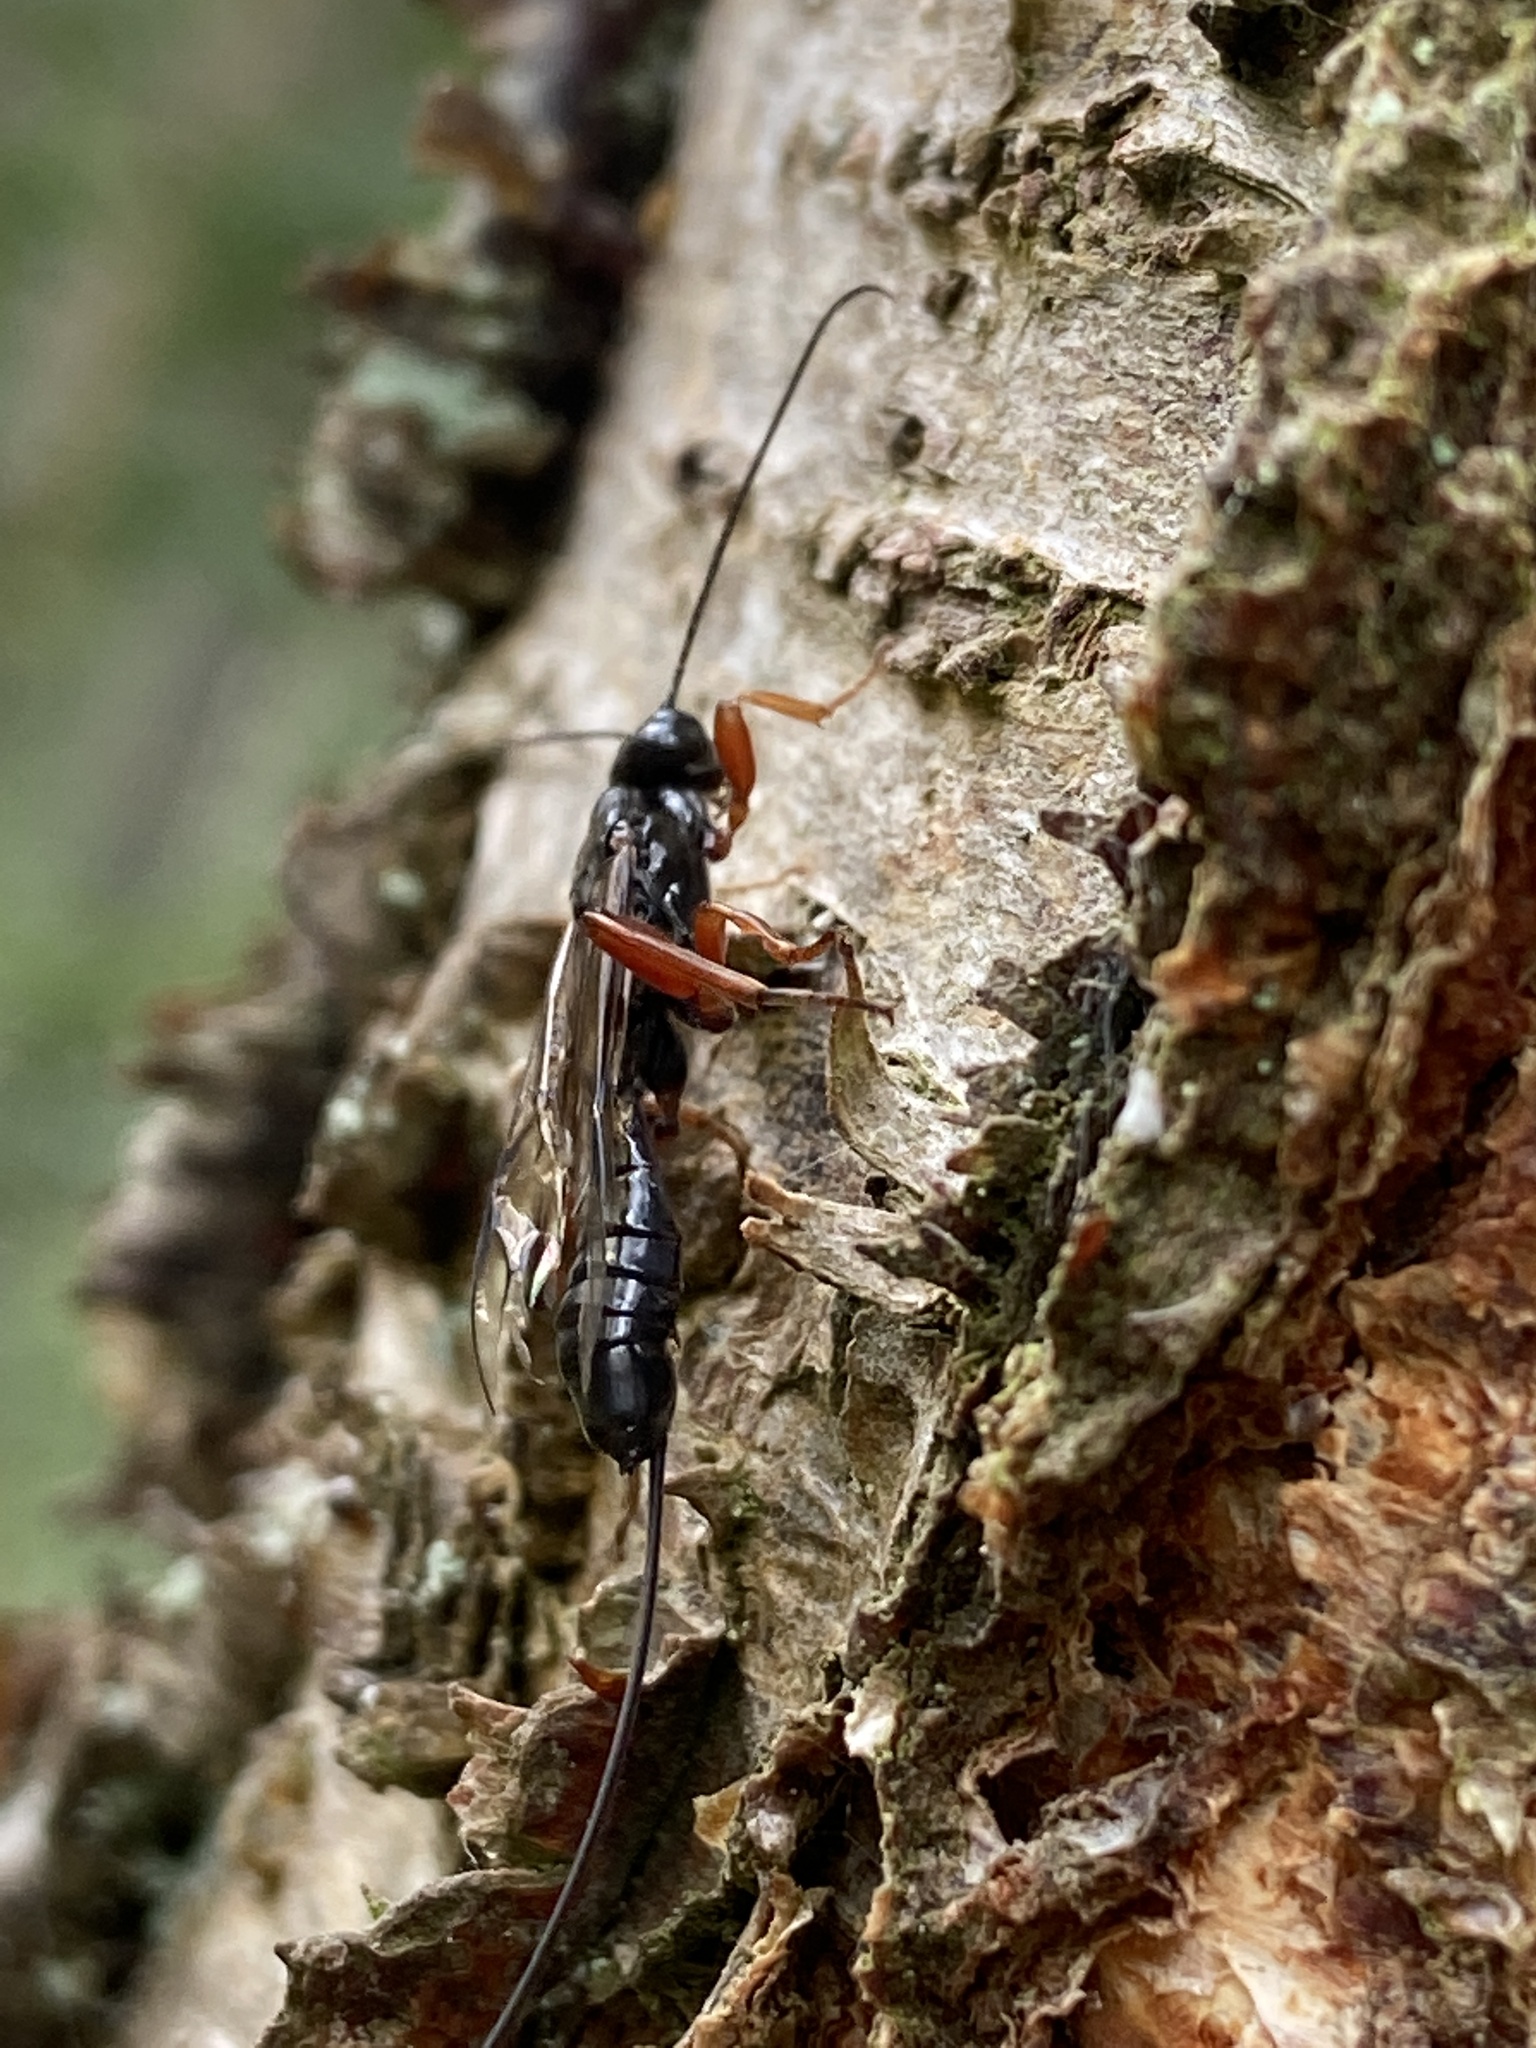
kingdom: Animalia
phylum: Arthropoda
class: Insecta
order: Hymenoptera
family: Ichneumonidae
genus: Odontocolon
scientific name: Odontocolon dentipes
